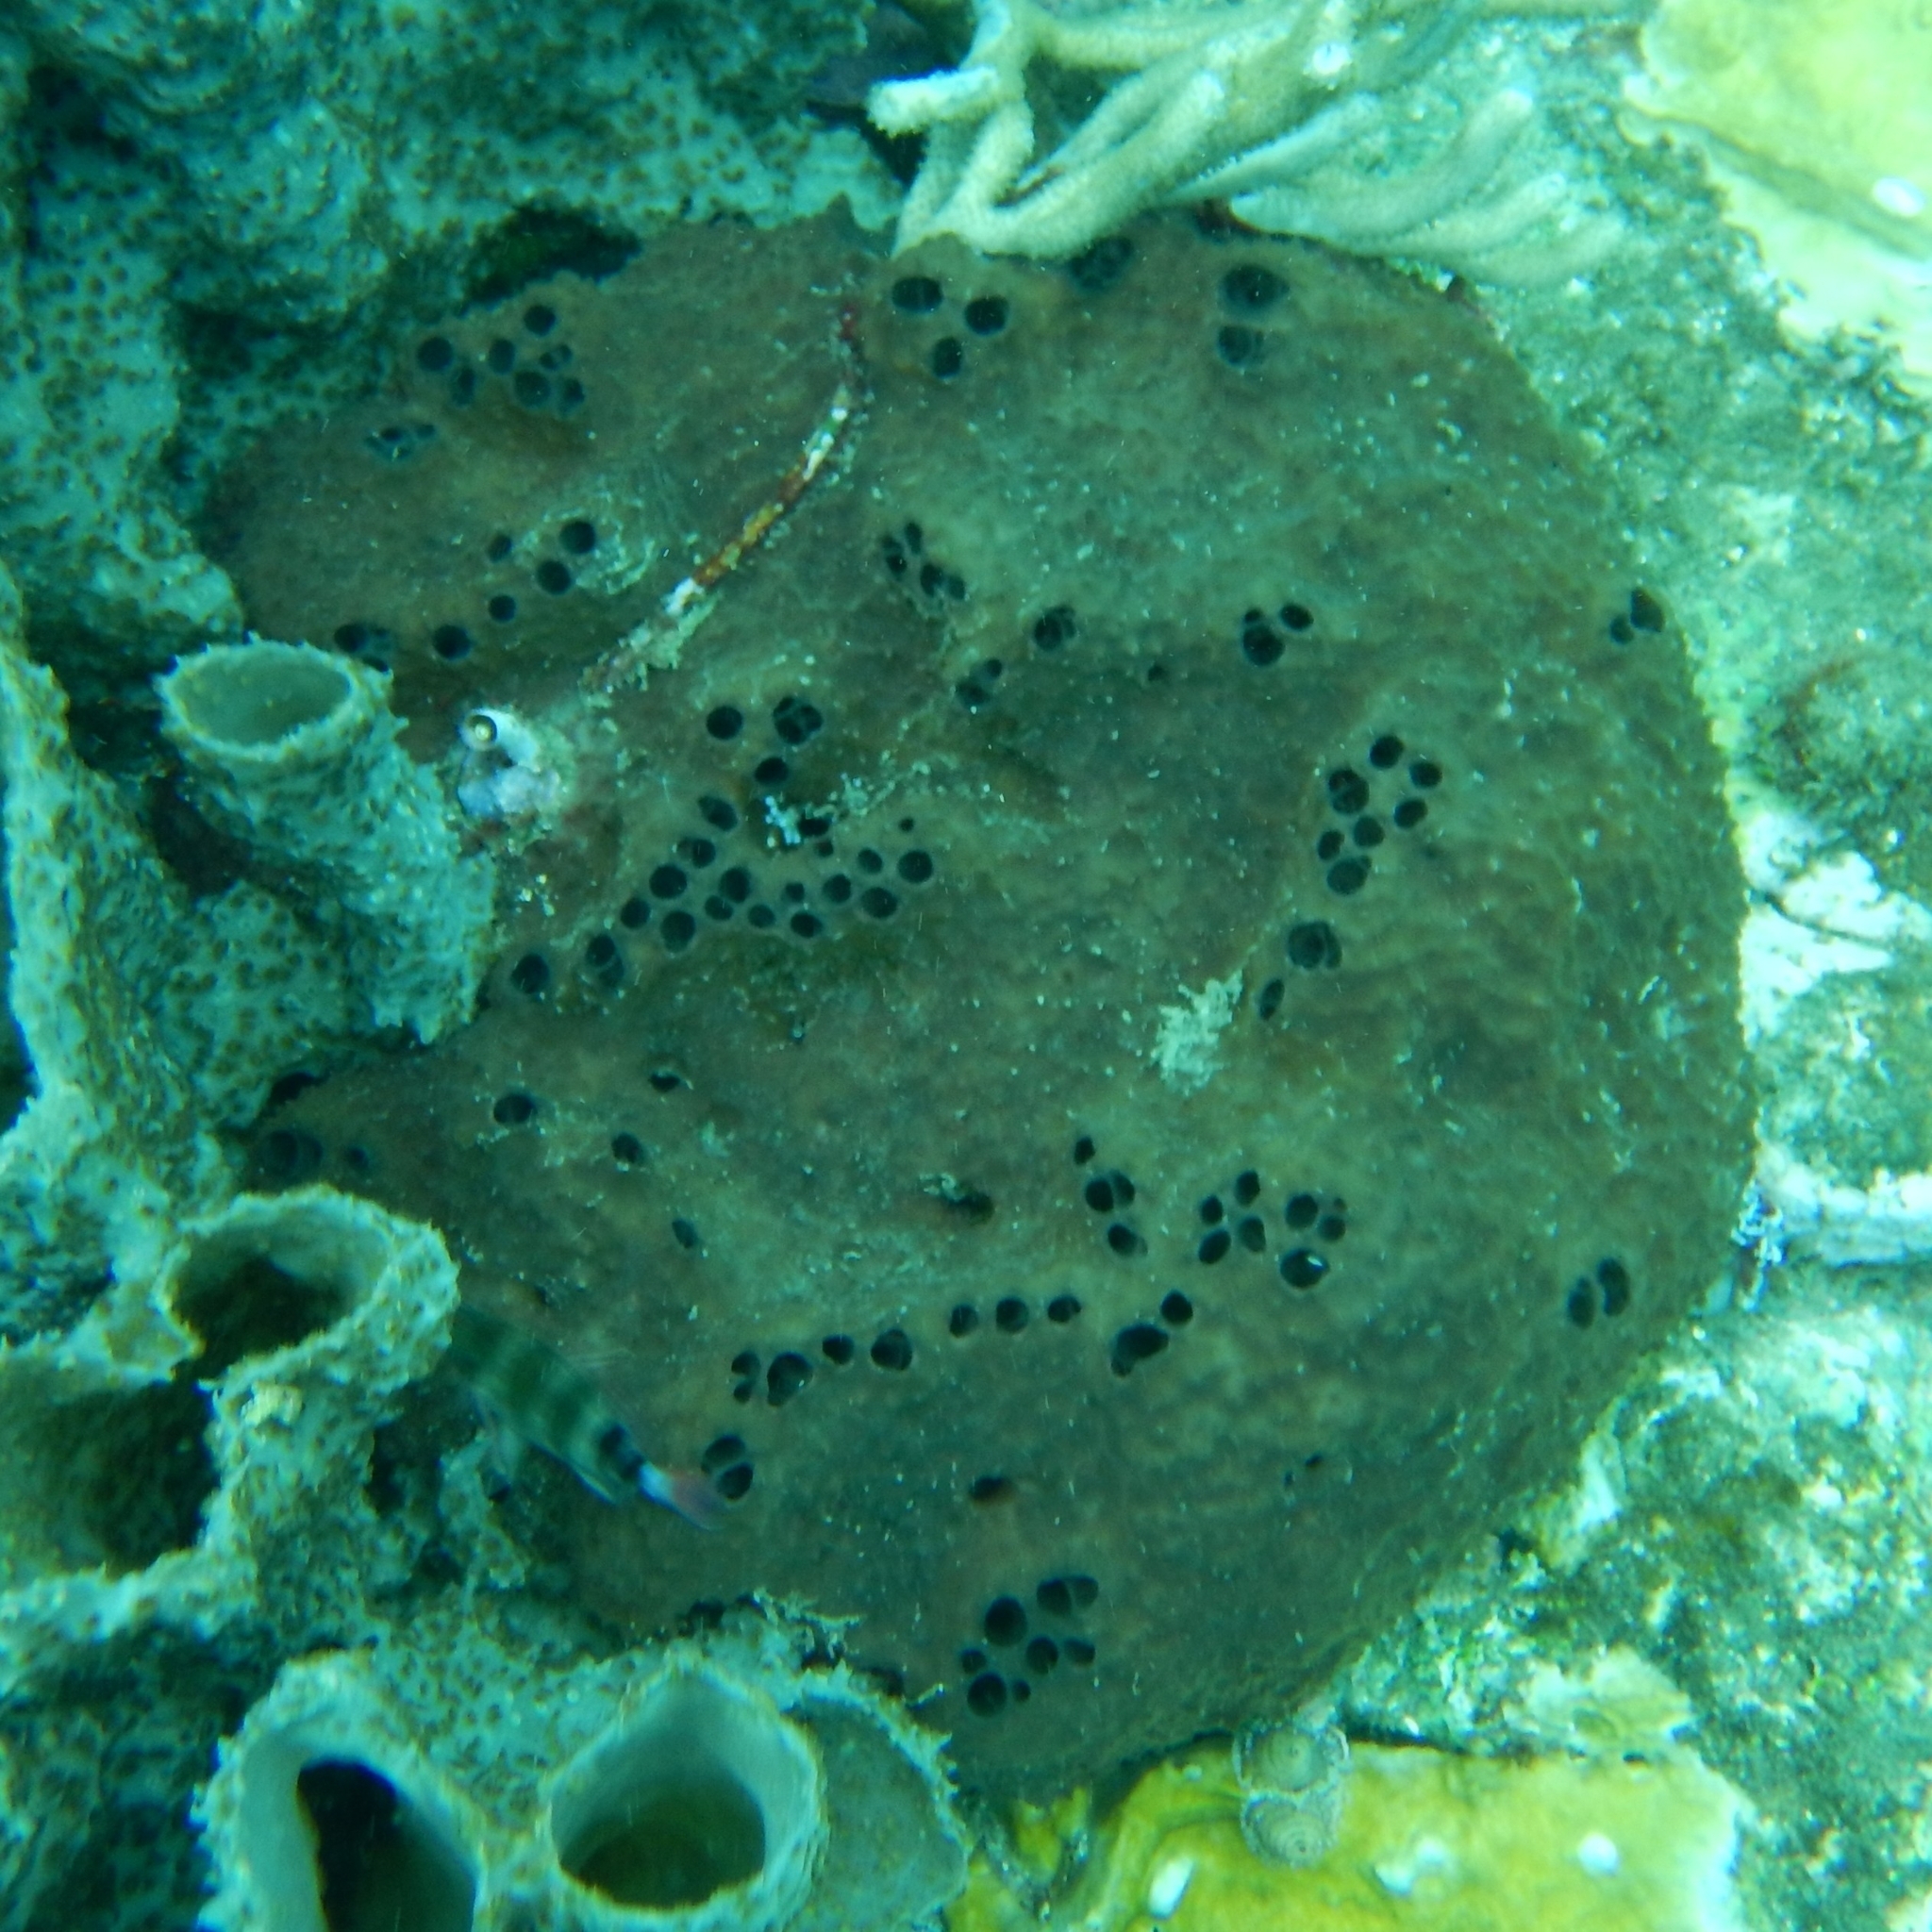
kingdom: Animalia
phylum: Porifera
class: Demospongiae
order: Dictyoceratida
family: Irciniidae
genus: Ircinia
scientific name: Ircinia felix
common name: Stinker sponge
